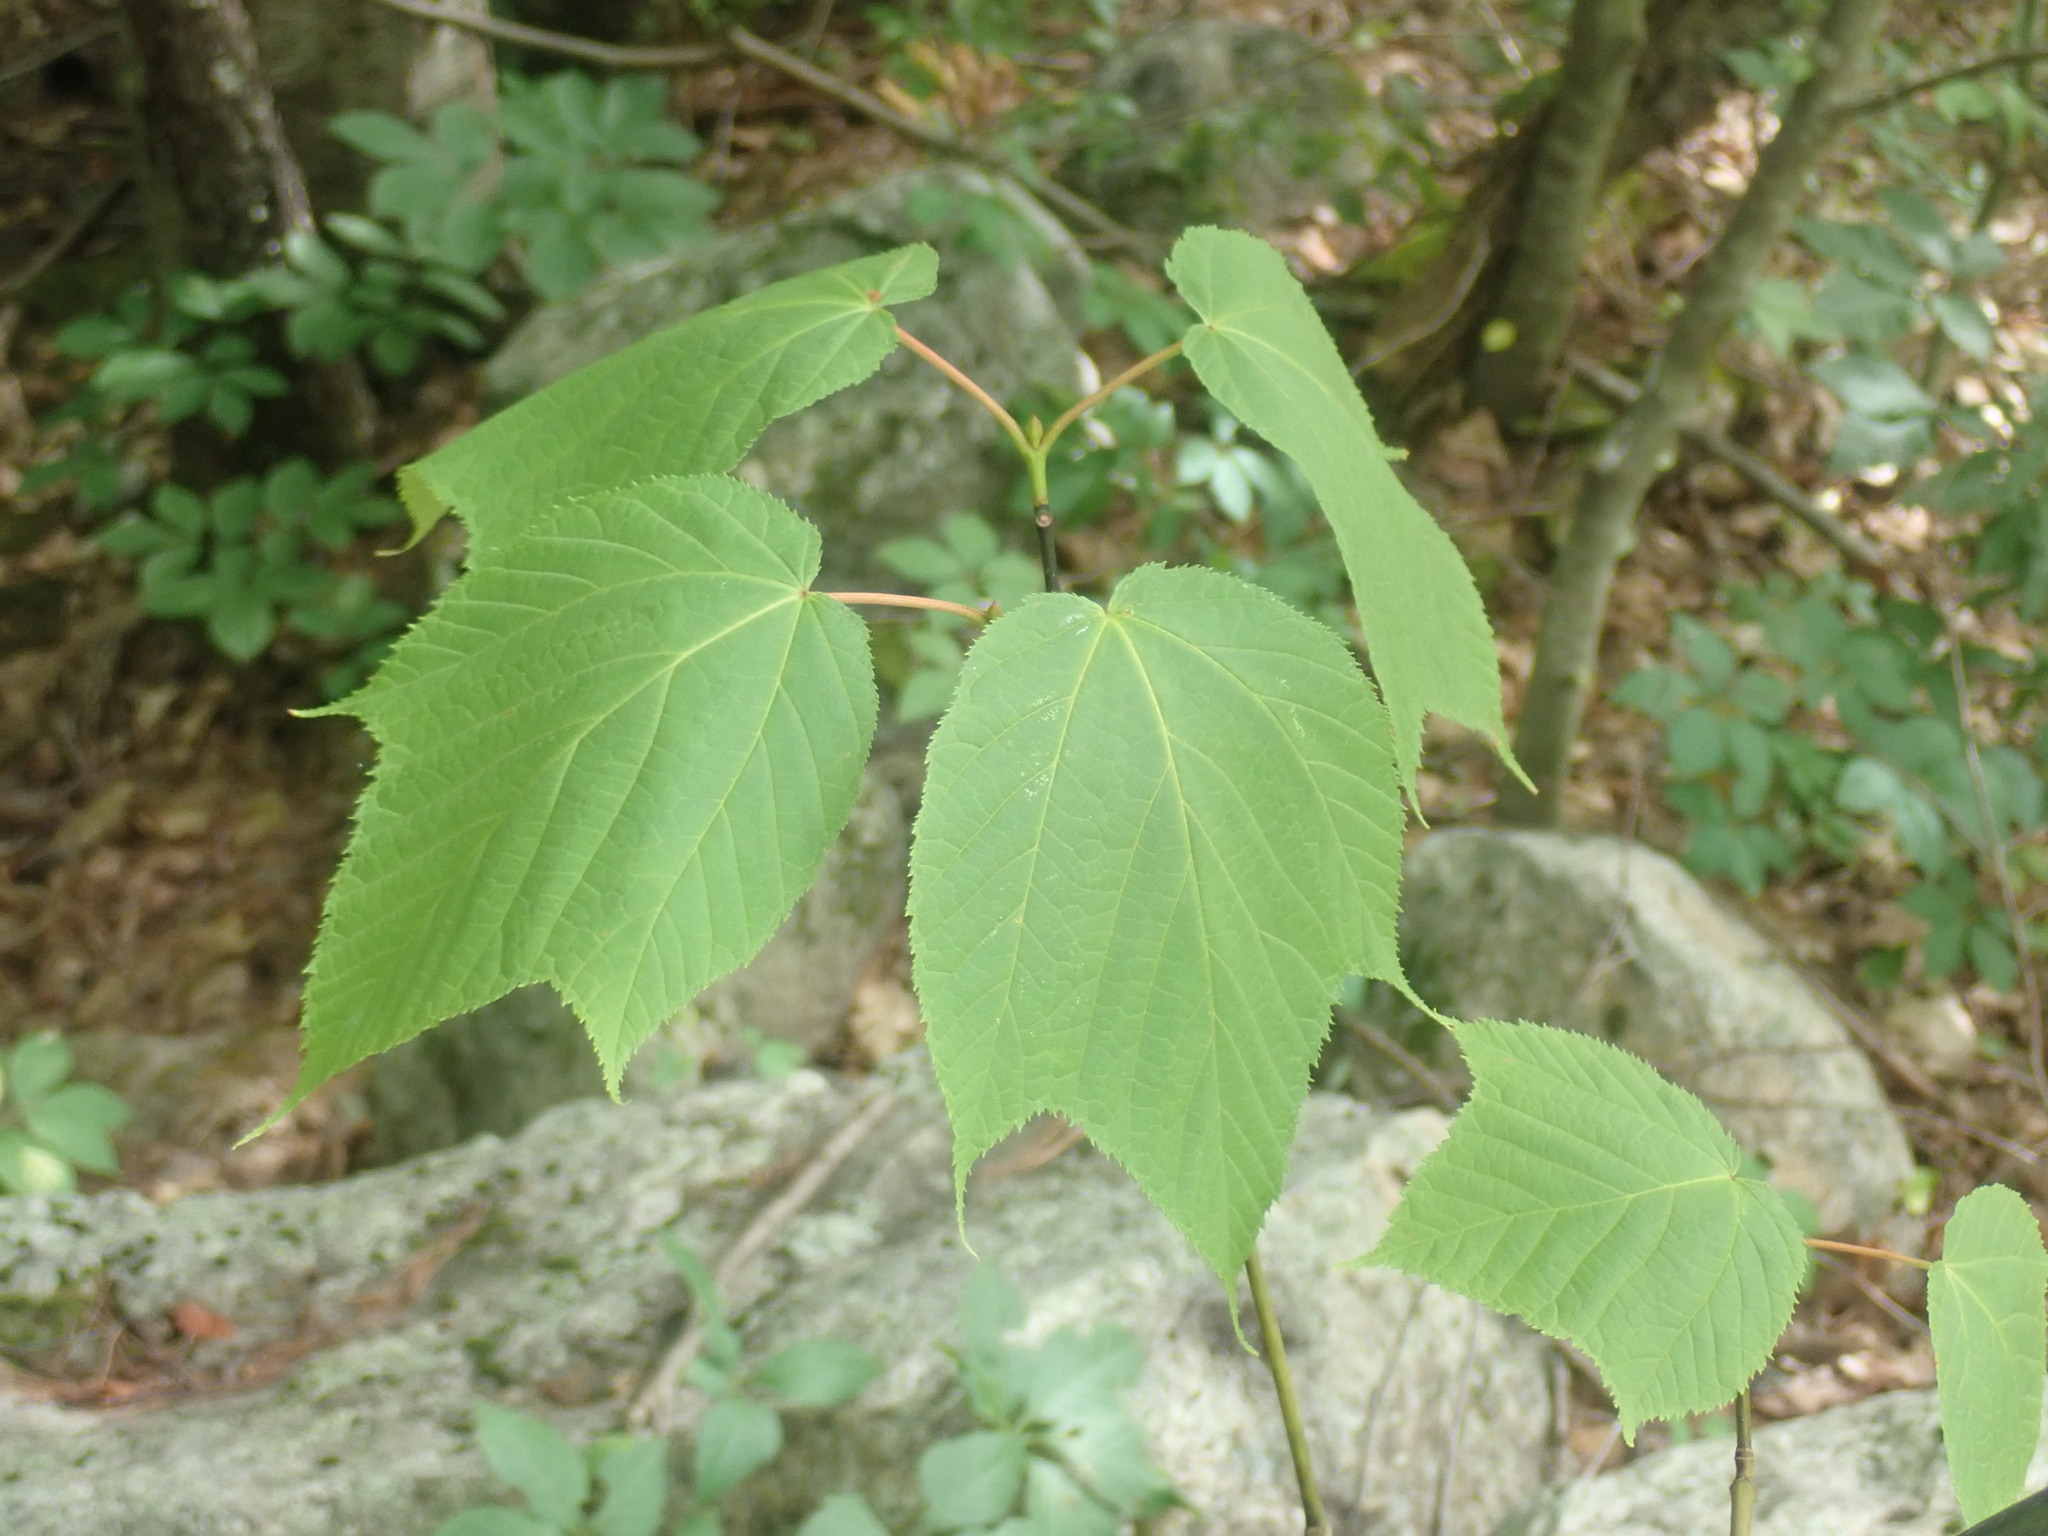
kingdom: Plantae
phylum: Tracheophyta
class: Magnoliopsida
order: Sapindales
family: Sapindaceae
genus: Acer
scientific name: Acer pensylvanicum
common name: Moosewood
